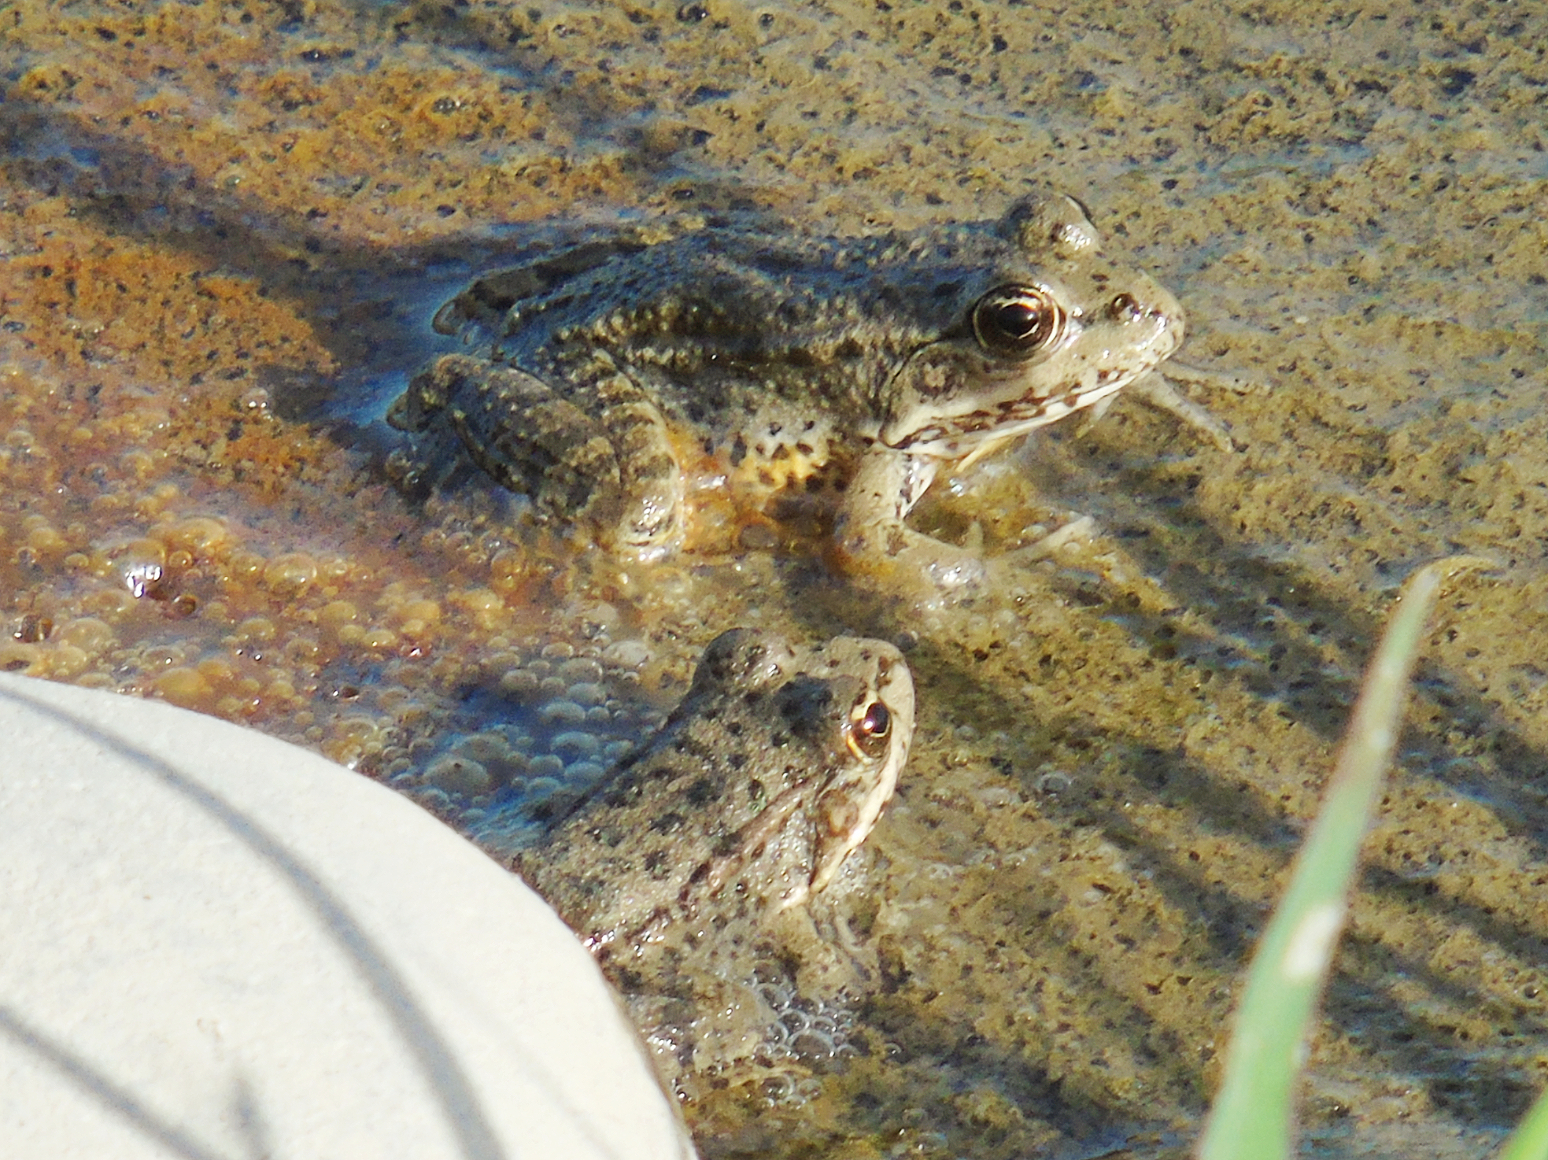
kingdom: Animalia
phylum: Chordata
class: Amphibia
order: Anura
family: Ranidae
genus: Pelophylax
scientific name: Pelophylax ridibundus
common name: Marsh frog
